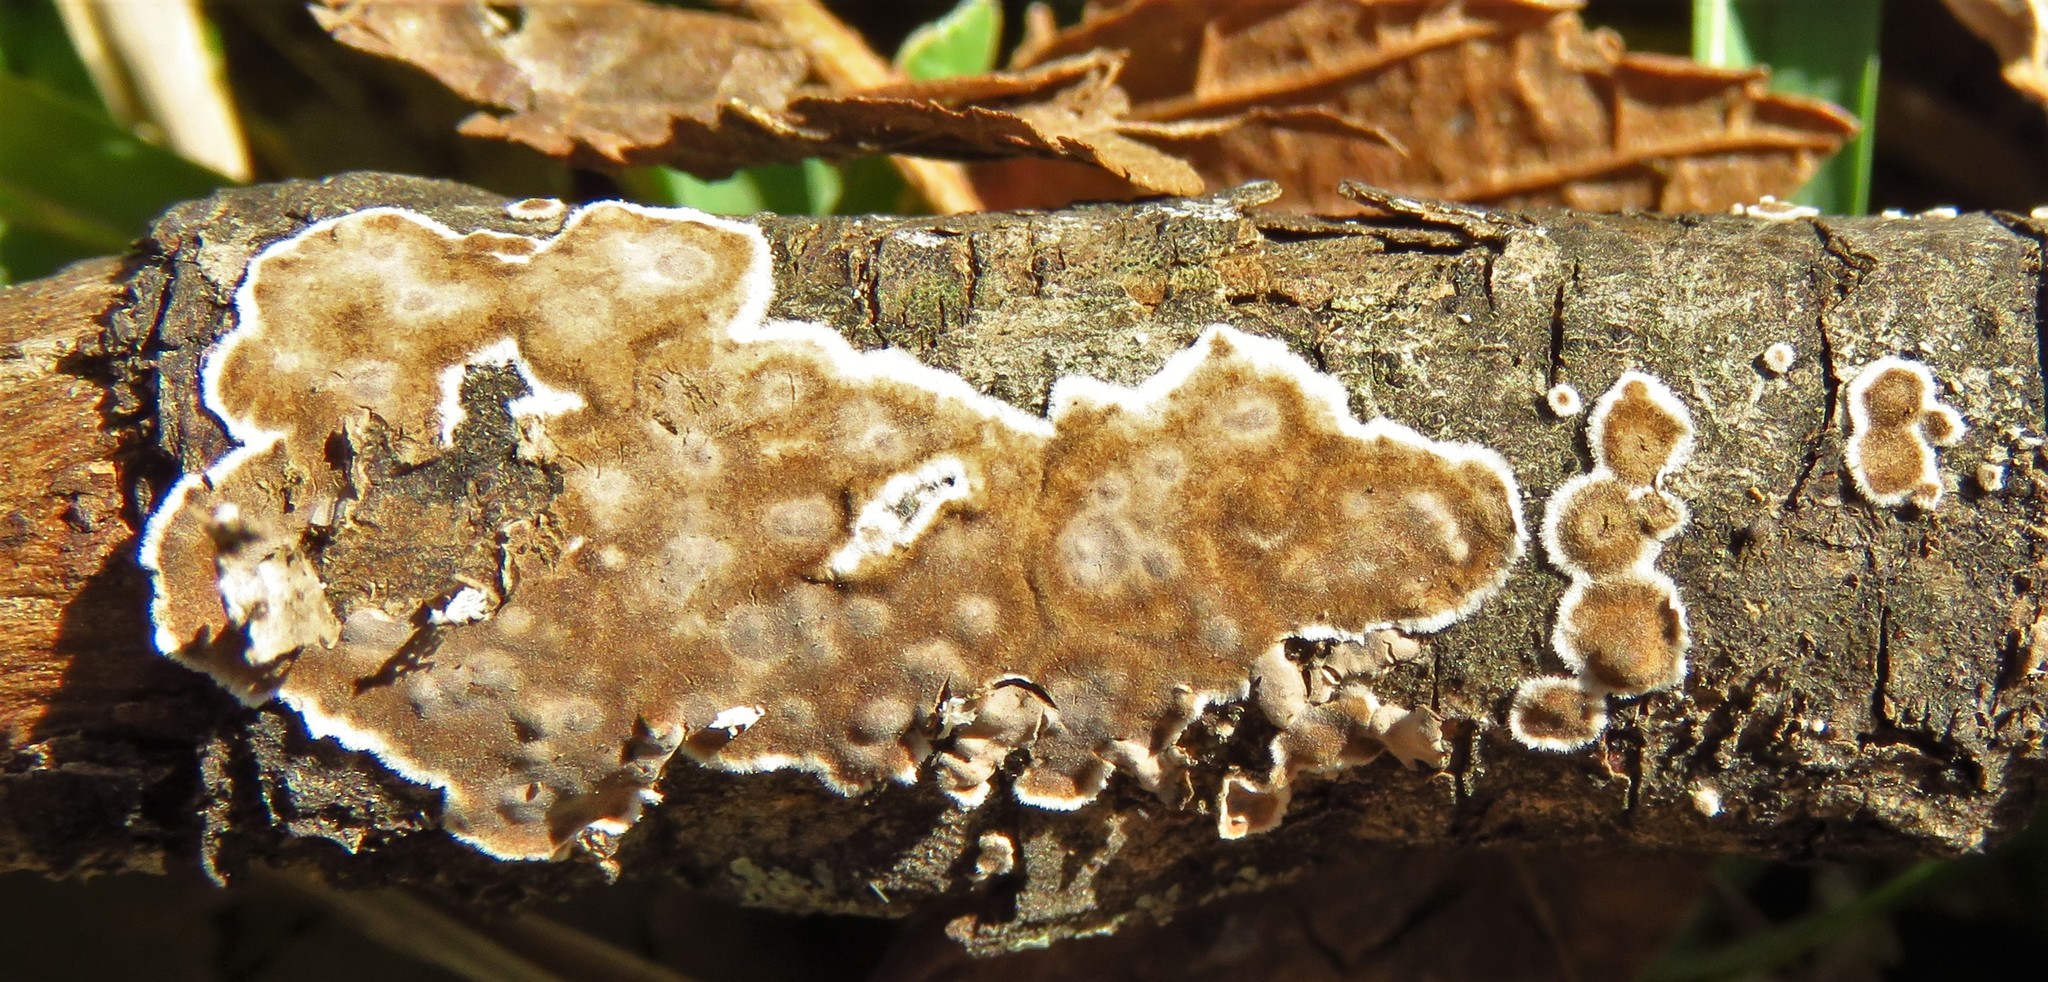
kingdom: Fungi
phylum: Basidiomycota
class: Agaricomycetes
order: Russulales
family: Peniophoraceae
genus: Peniophora
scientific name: Peniophora albobadia
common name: Giraffe spots
